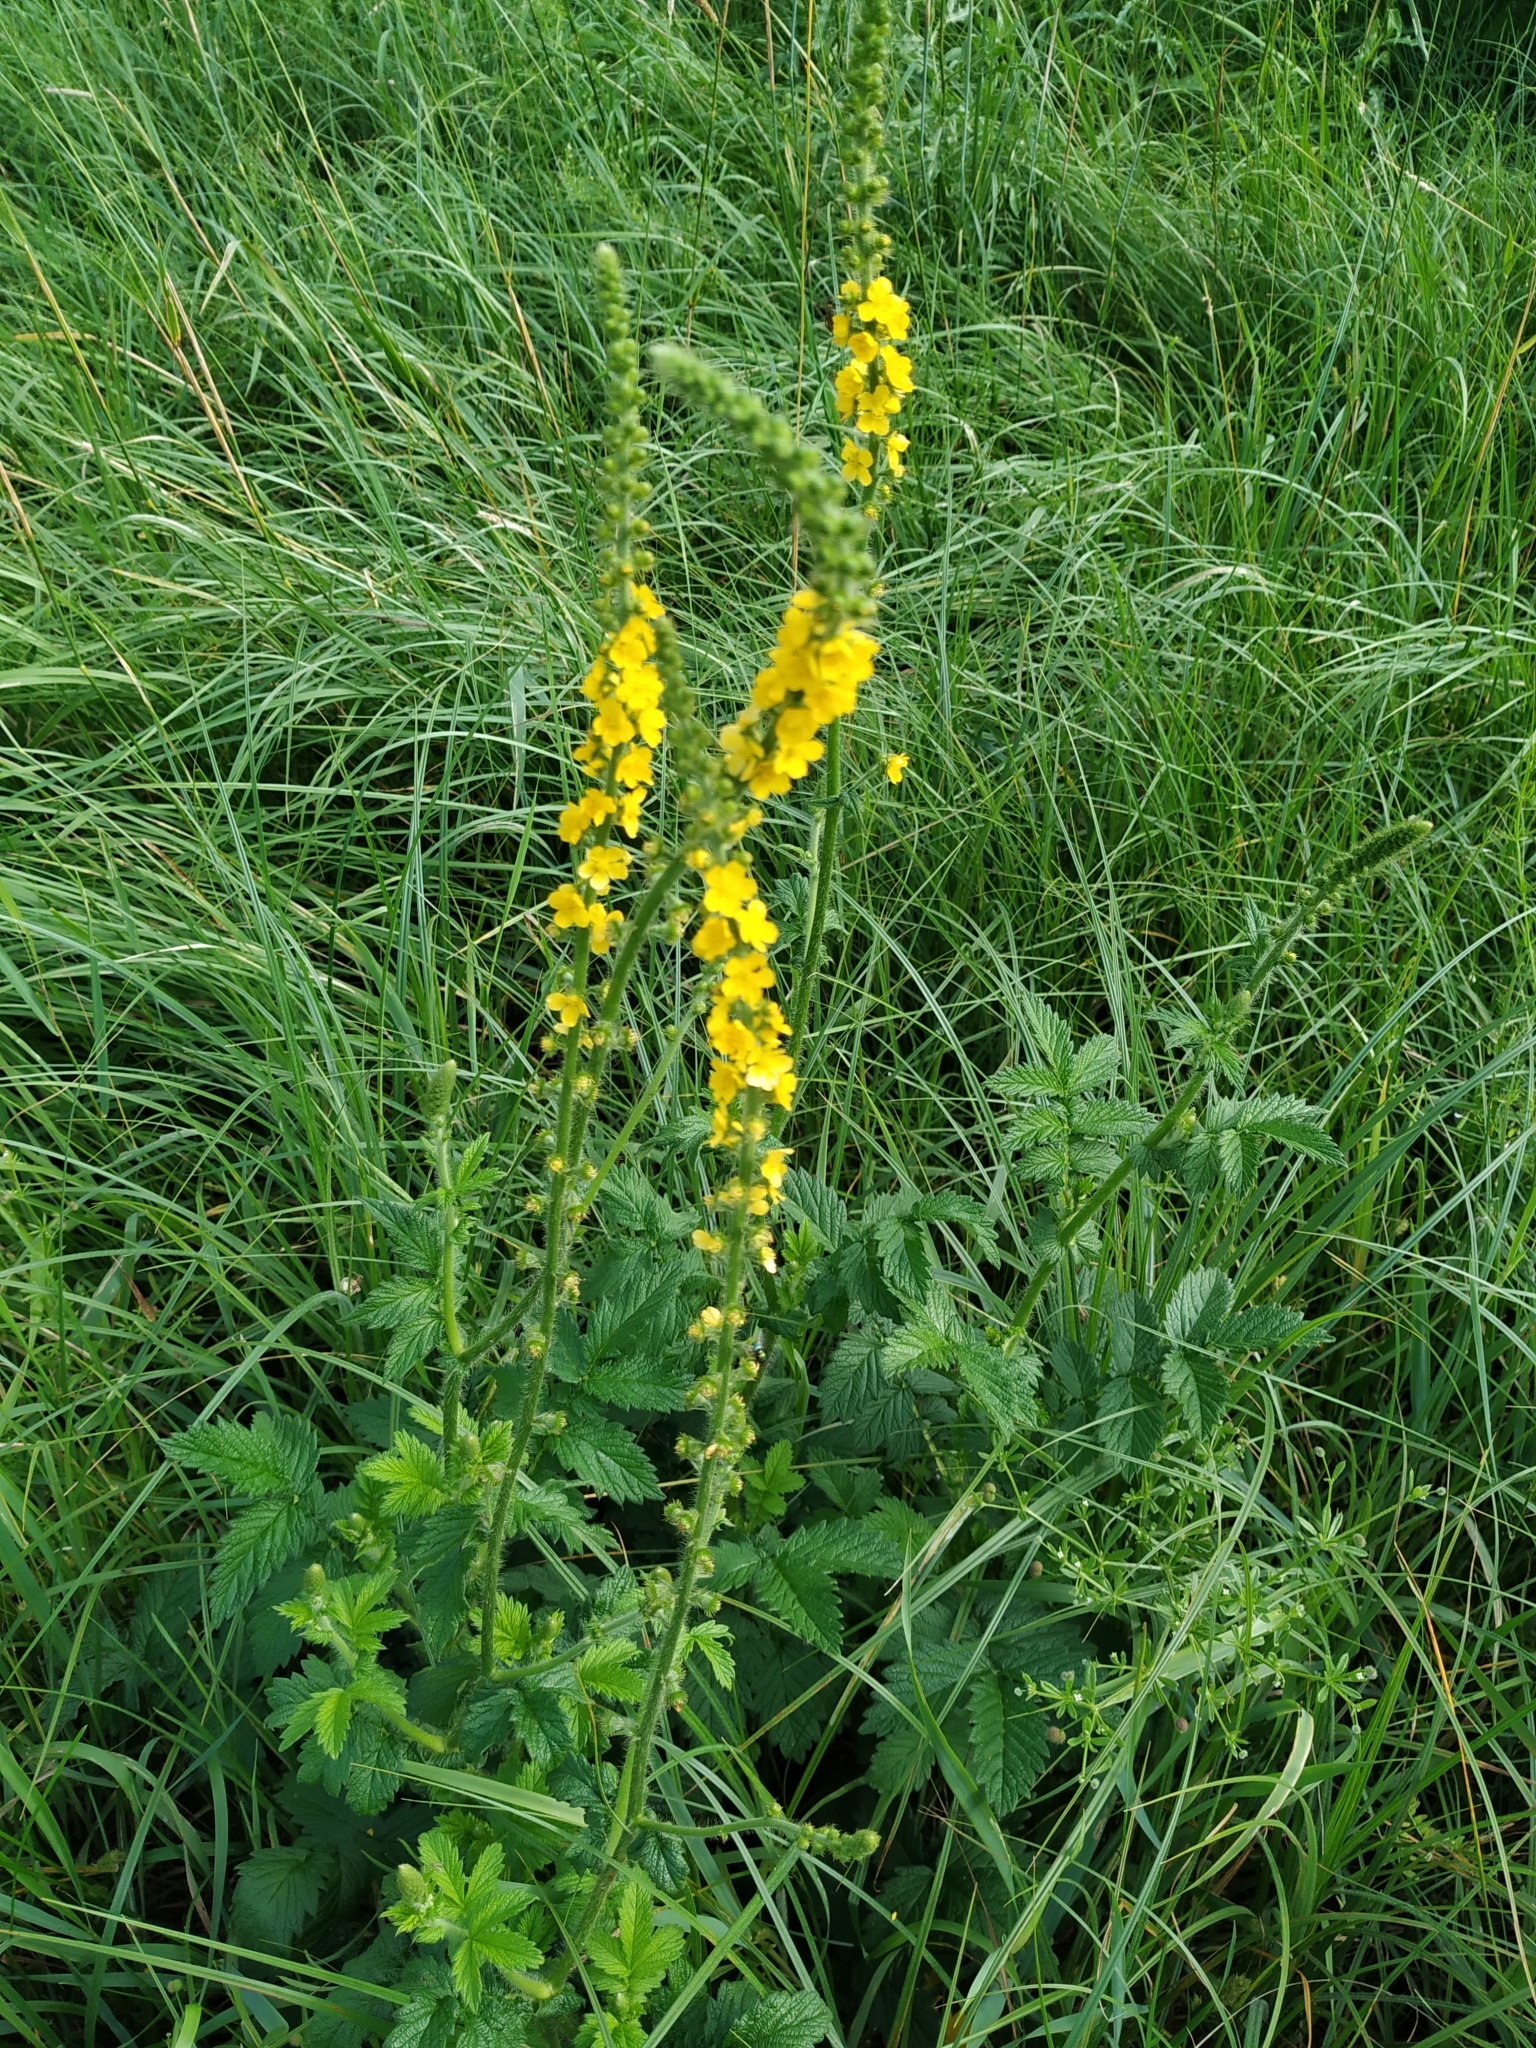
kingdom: Plantae
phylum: Tracheophyta
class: Magnoliopsida
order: Rosales
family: Rosaceae
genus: Agrimonia
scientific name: Agrimonia eupatoria
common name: Agrimony
